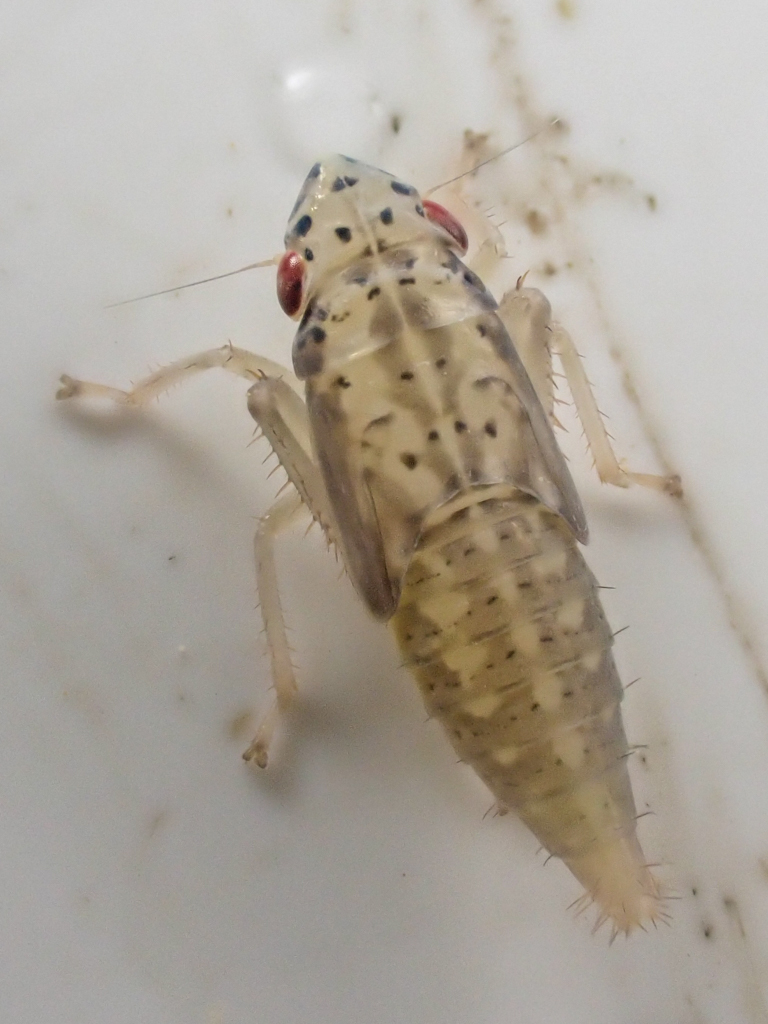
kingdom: Animalia
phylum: Arthropoda
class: Insecta
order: Hemiptera
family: Cicadellidae
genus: Pagaronia
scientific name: Pagaronia triunata
